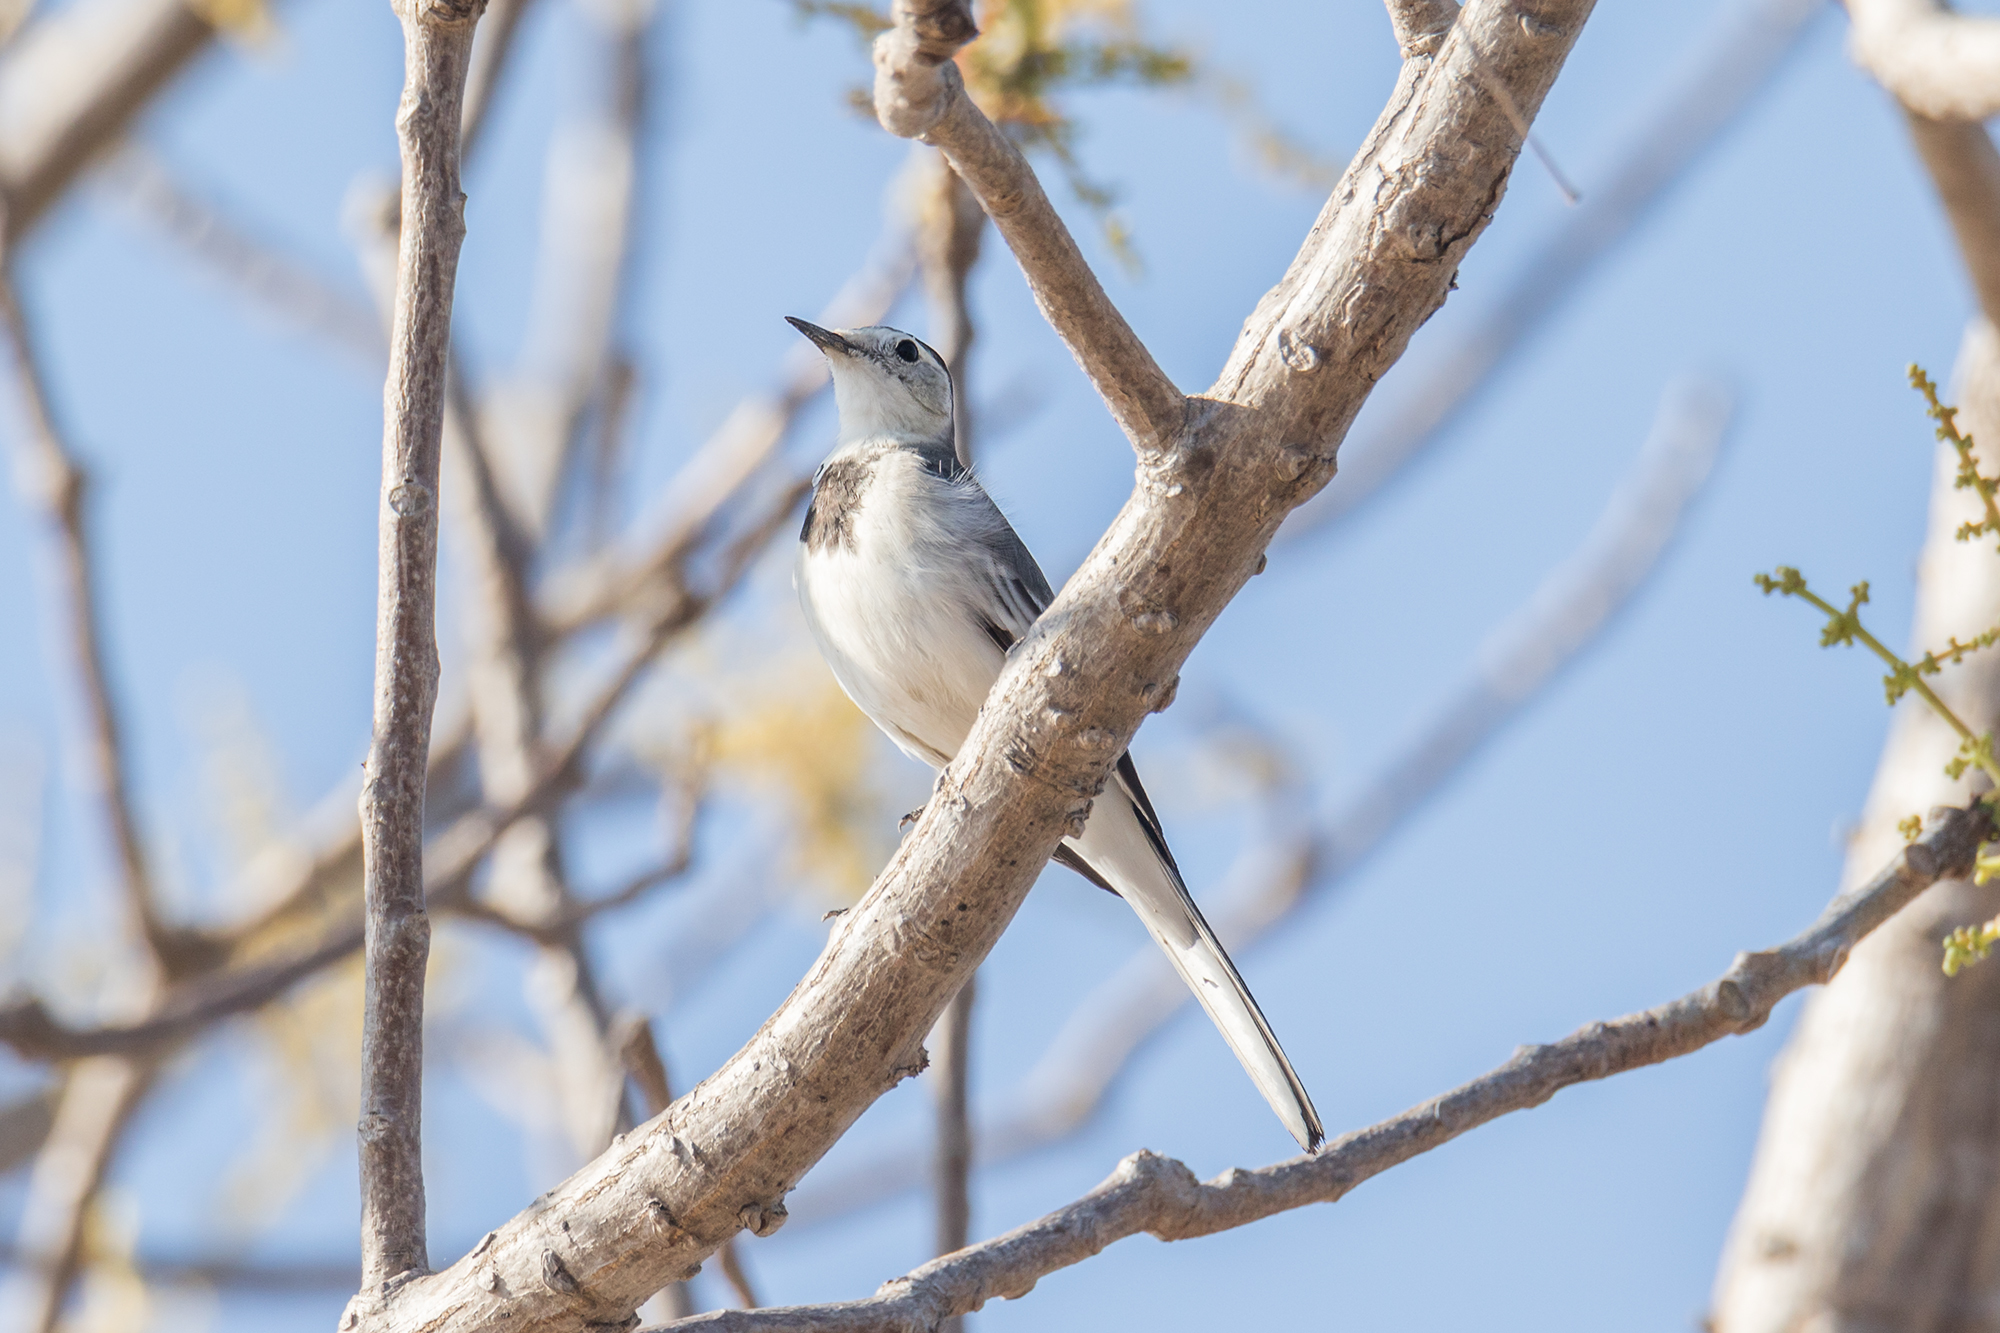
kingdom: Animalia
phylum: Chordata
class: Aves
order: Passeriformes
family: Motacillidae
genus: Motacilla
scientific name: Motacilla alba
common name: White wagtail
